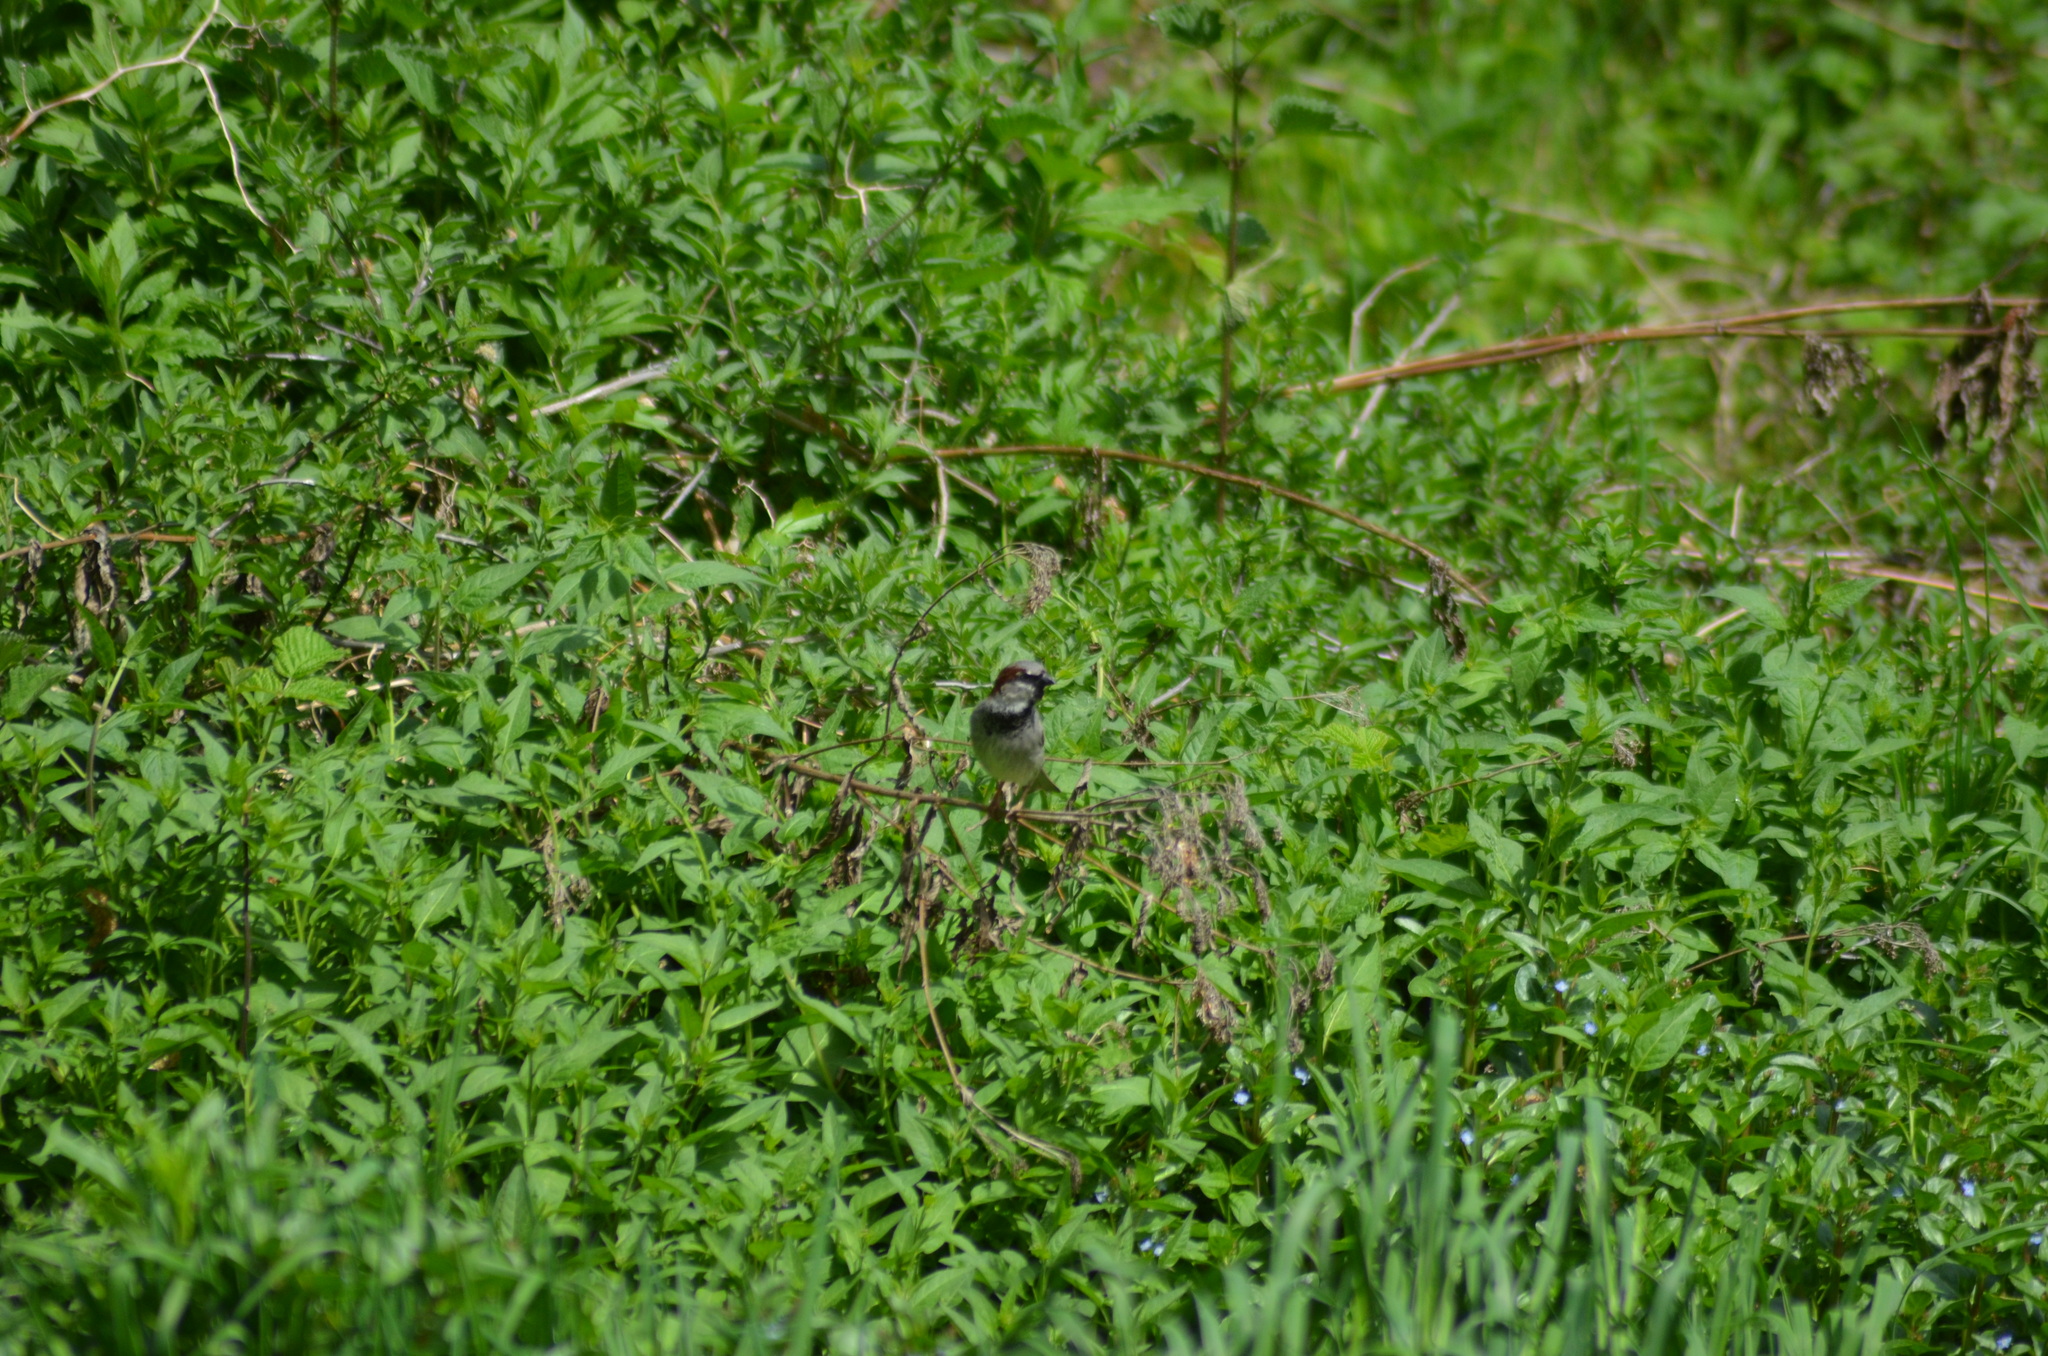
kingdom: Animalia
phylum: Chordata
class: Aves
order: Passeriformes
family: Passeridae
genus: Passer
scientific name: Passer domesticus
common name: House sparrow
